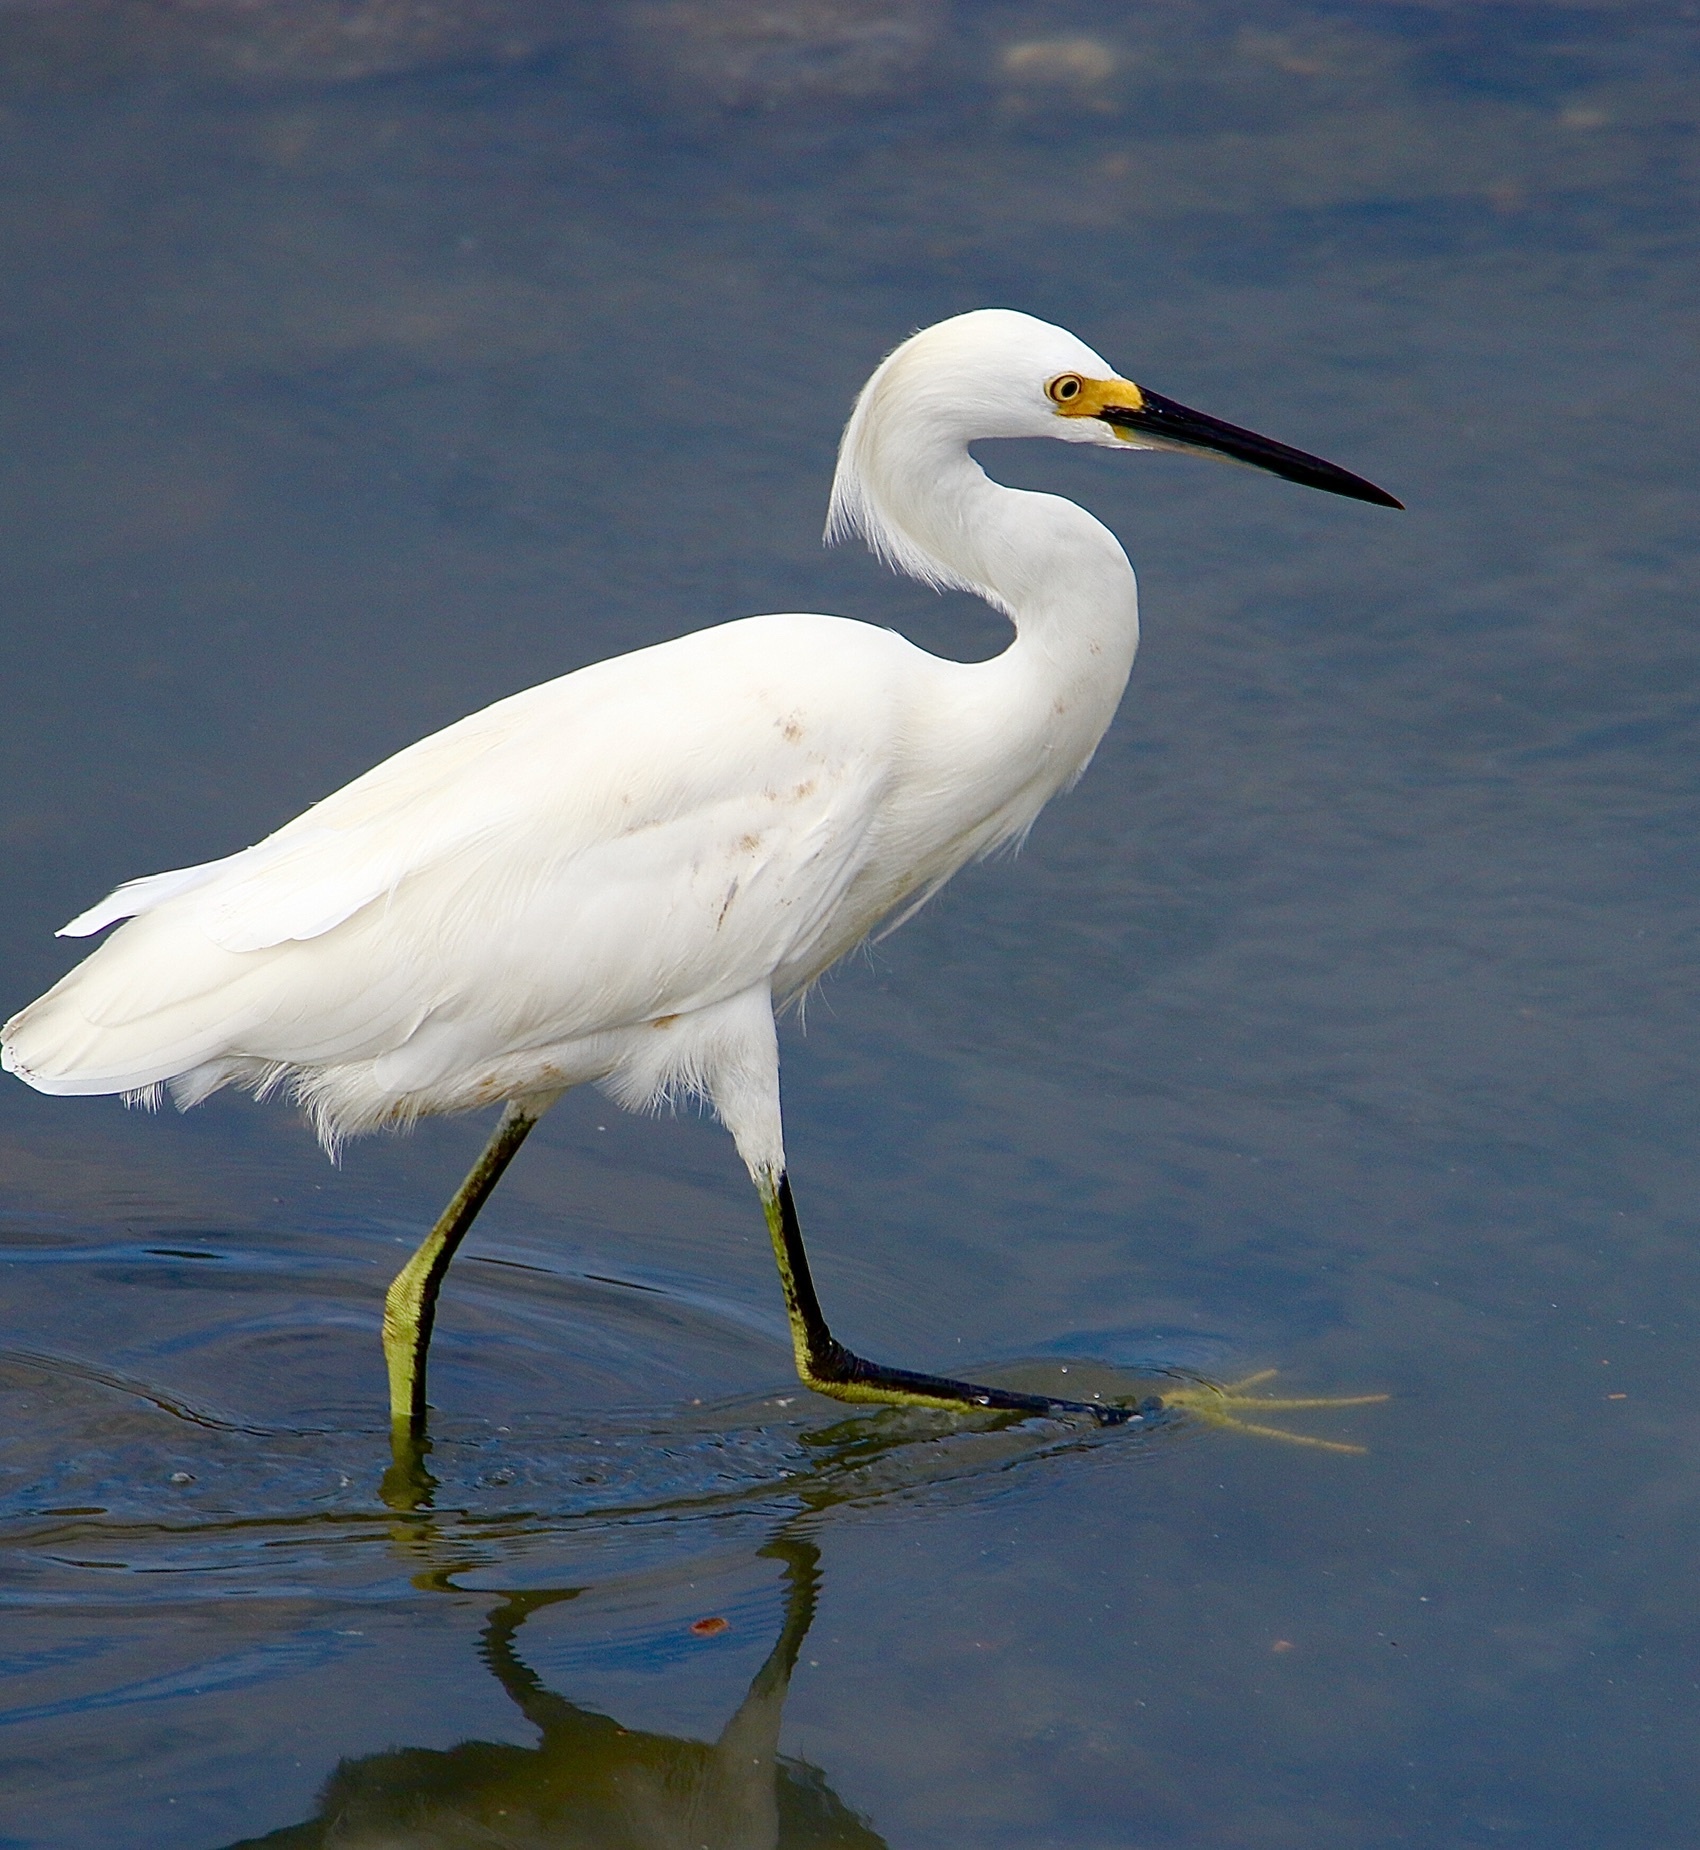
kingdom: Animalia
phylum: Chordata
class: Aves
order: Pelecaniformes
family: Ardeidae
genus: Egretta
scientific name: Egretta thula
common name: Snowy egret
